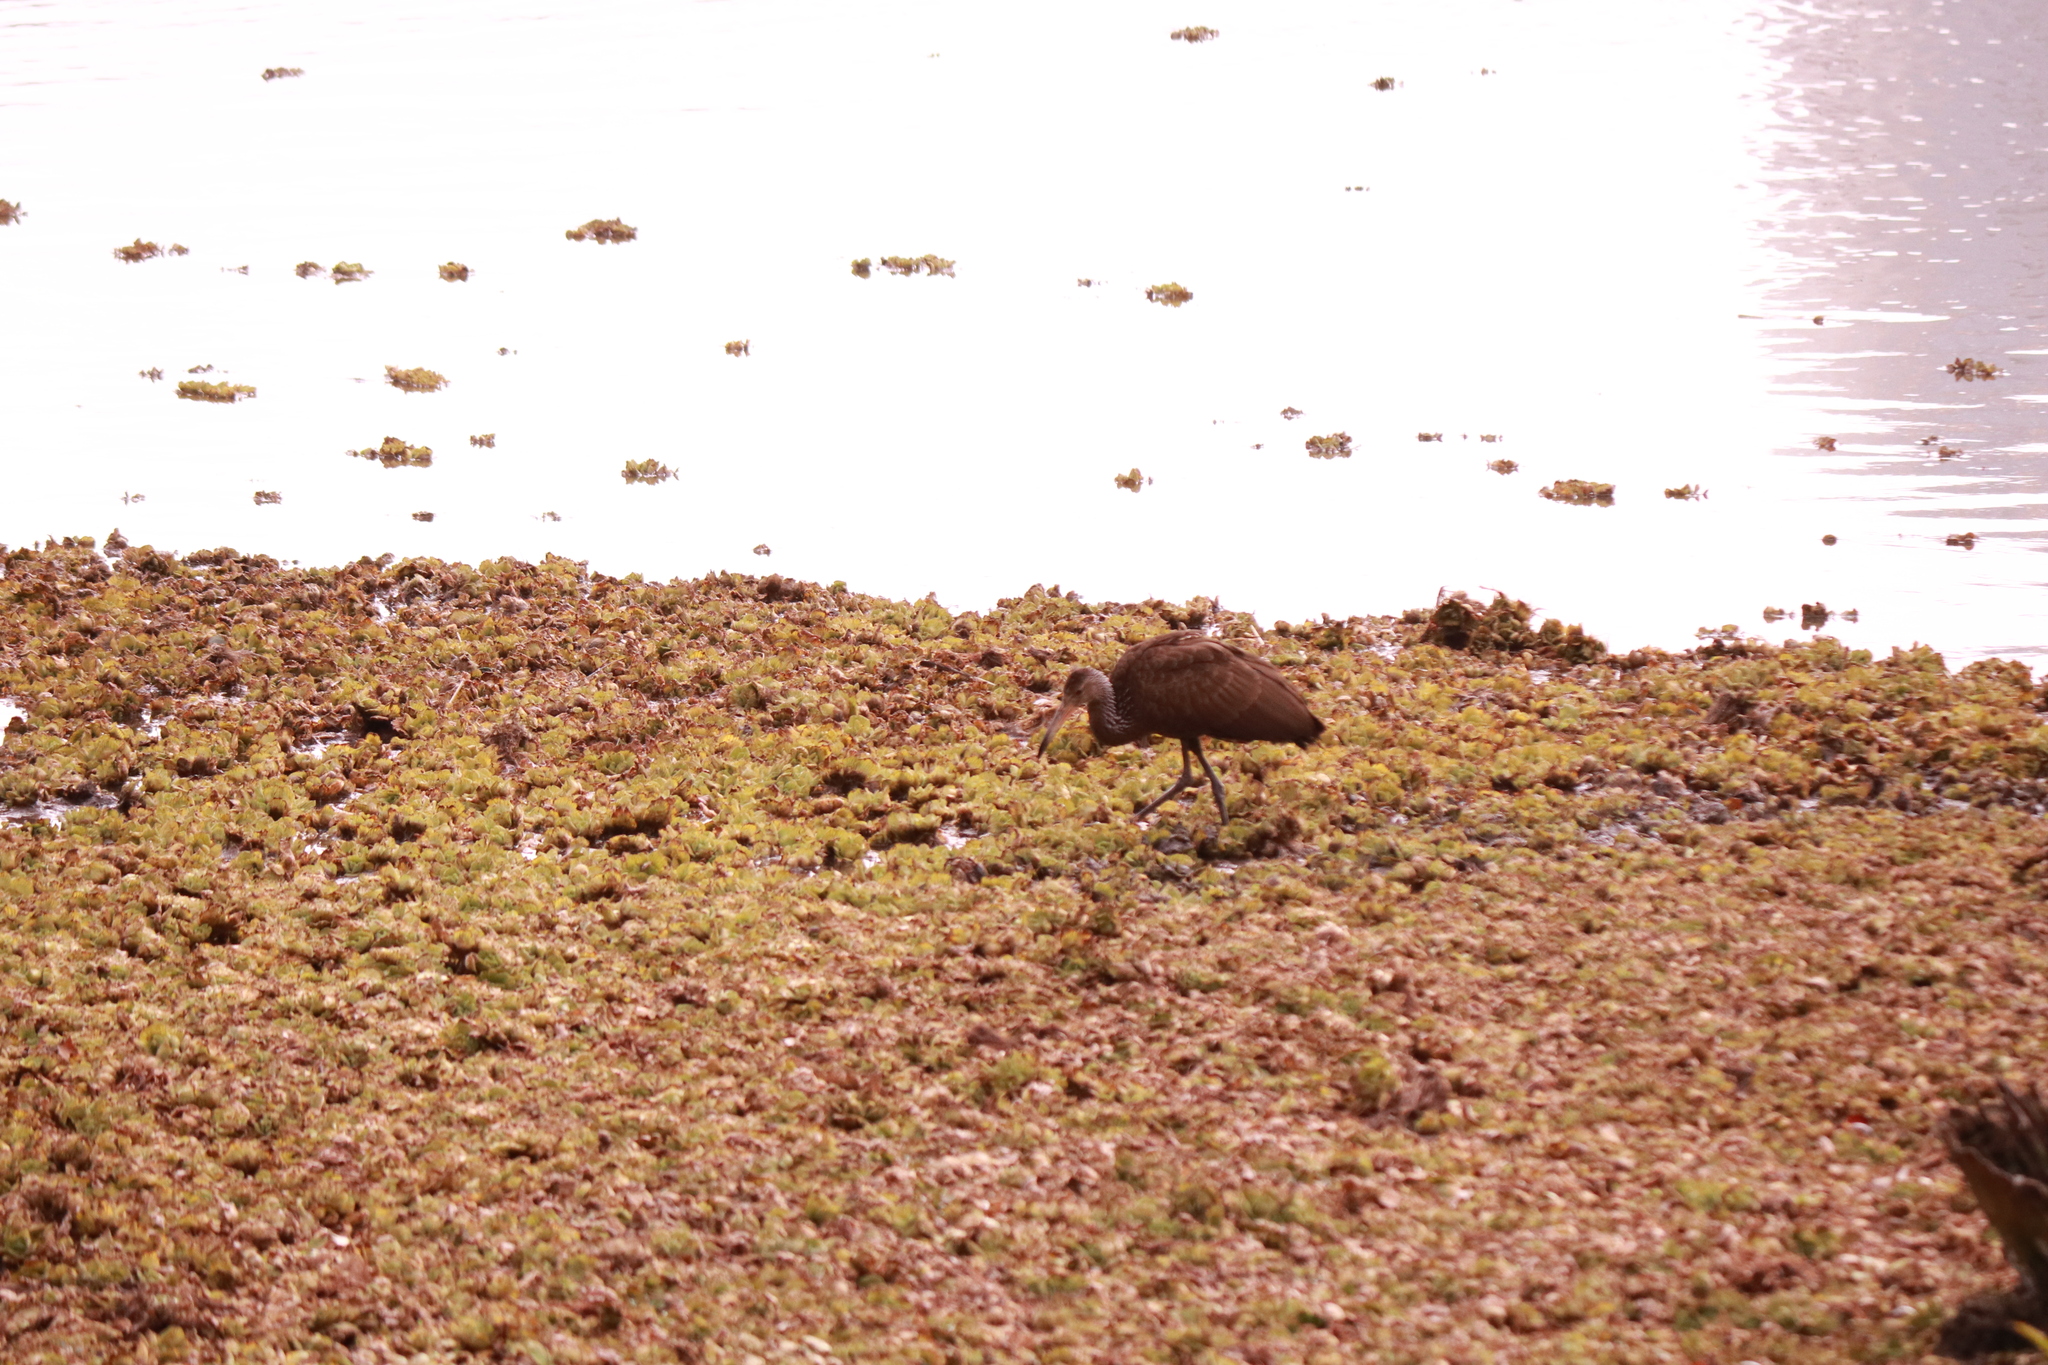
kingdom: Animalia
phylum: Chordata
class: Aves
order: Gruiformes
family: Aramidae
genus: Aramus
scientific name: Aramus guarauna
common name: Limpkin
